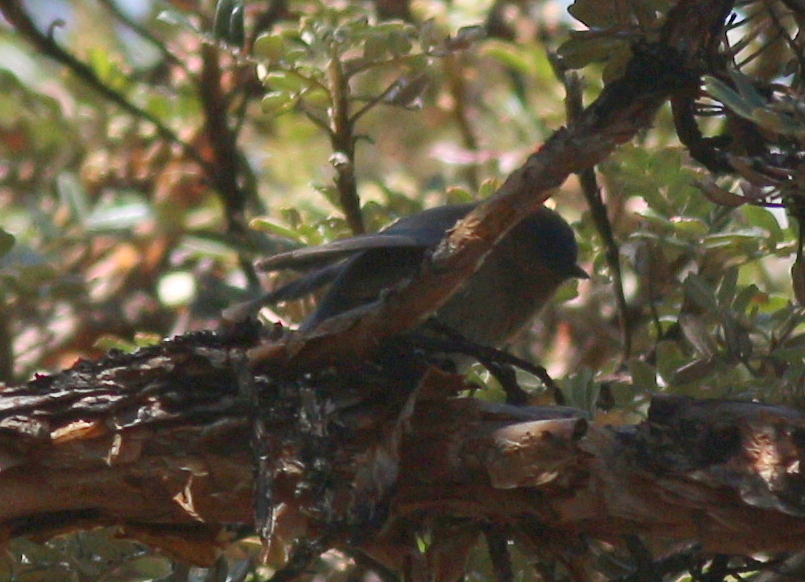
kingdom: Animalia
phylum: Chordata
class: Aves
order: Passeriformes
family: Thraupidae
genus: Xenodacnis
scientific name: Xenodacnis parina
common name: Tit-like dacnis
